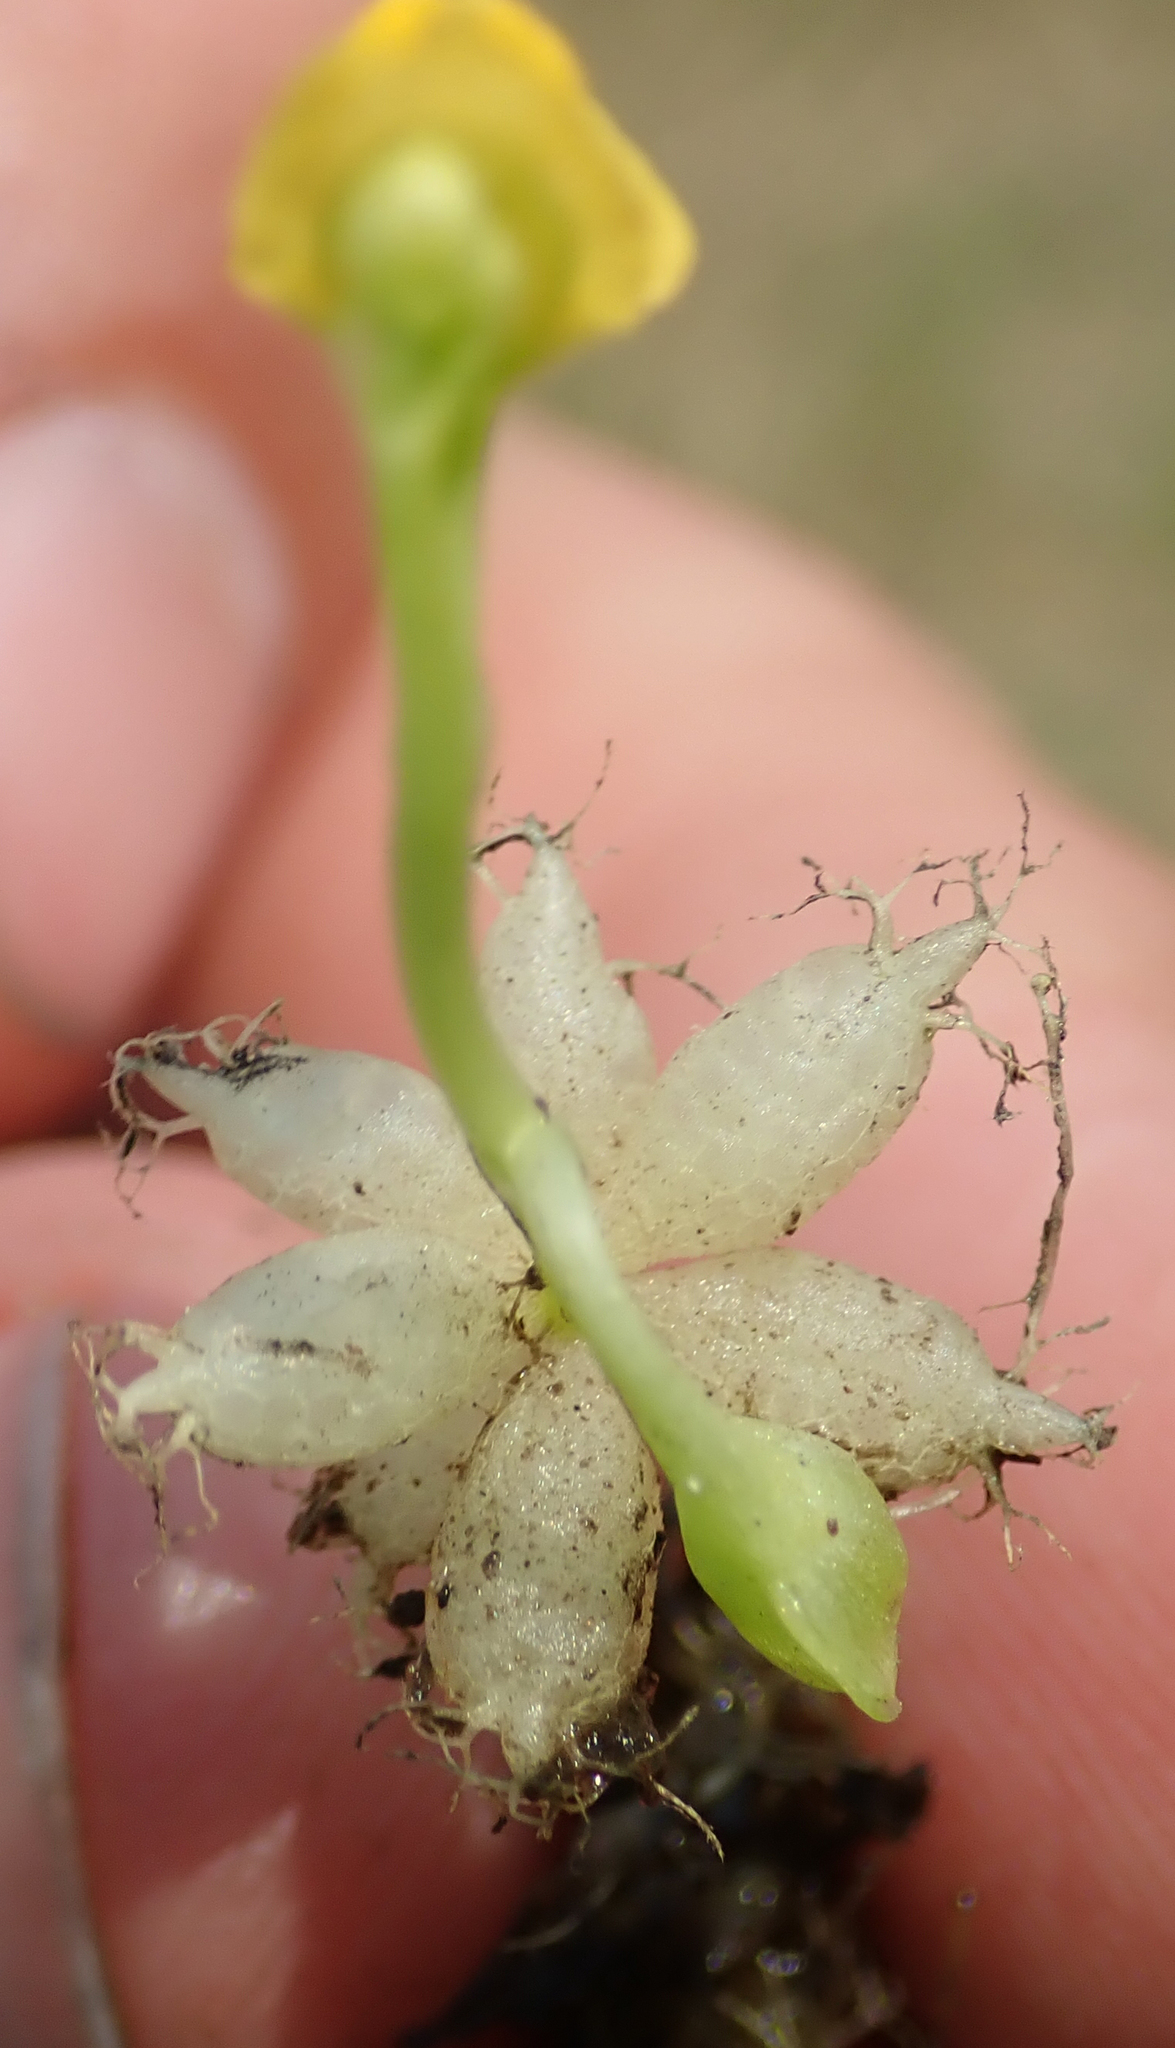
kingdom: Plantae
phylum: Tracheophyta
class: Magnoliopsida
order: Lamiales
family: Lentibulariaceae
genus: Utricularia
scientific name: Utricularia stellaris
